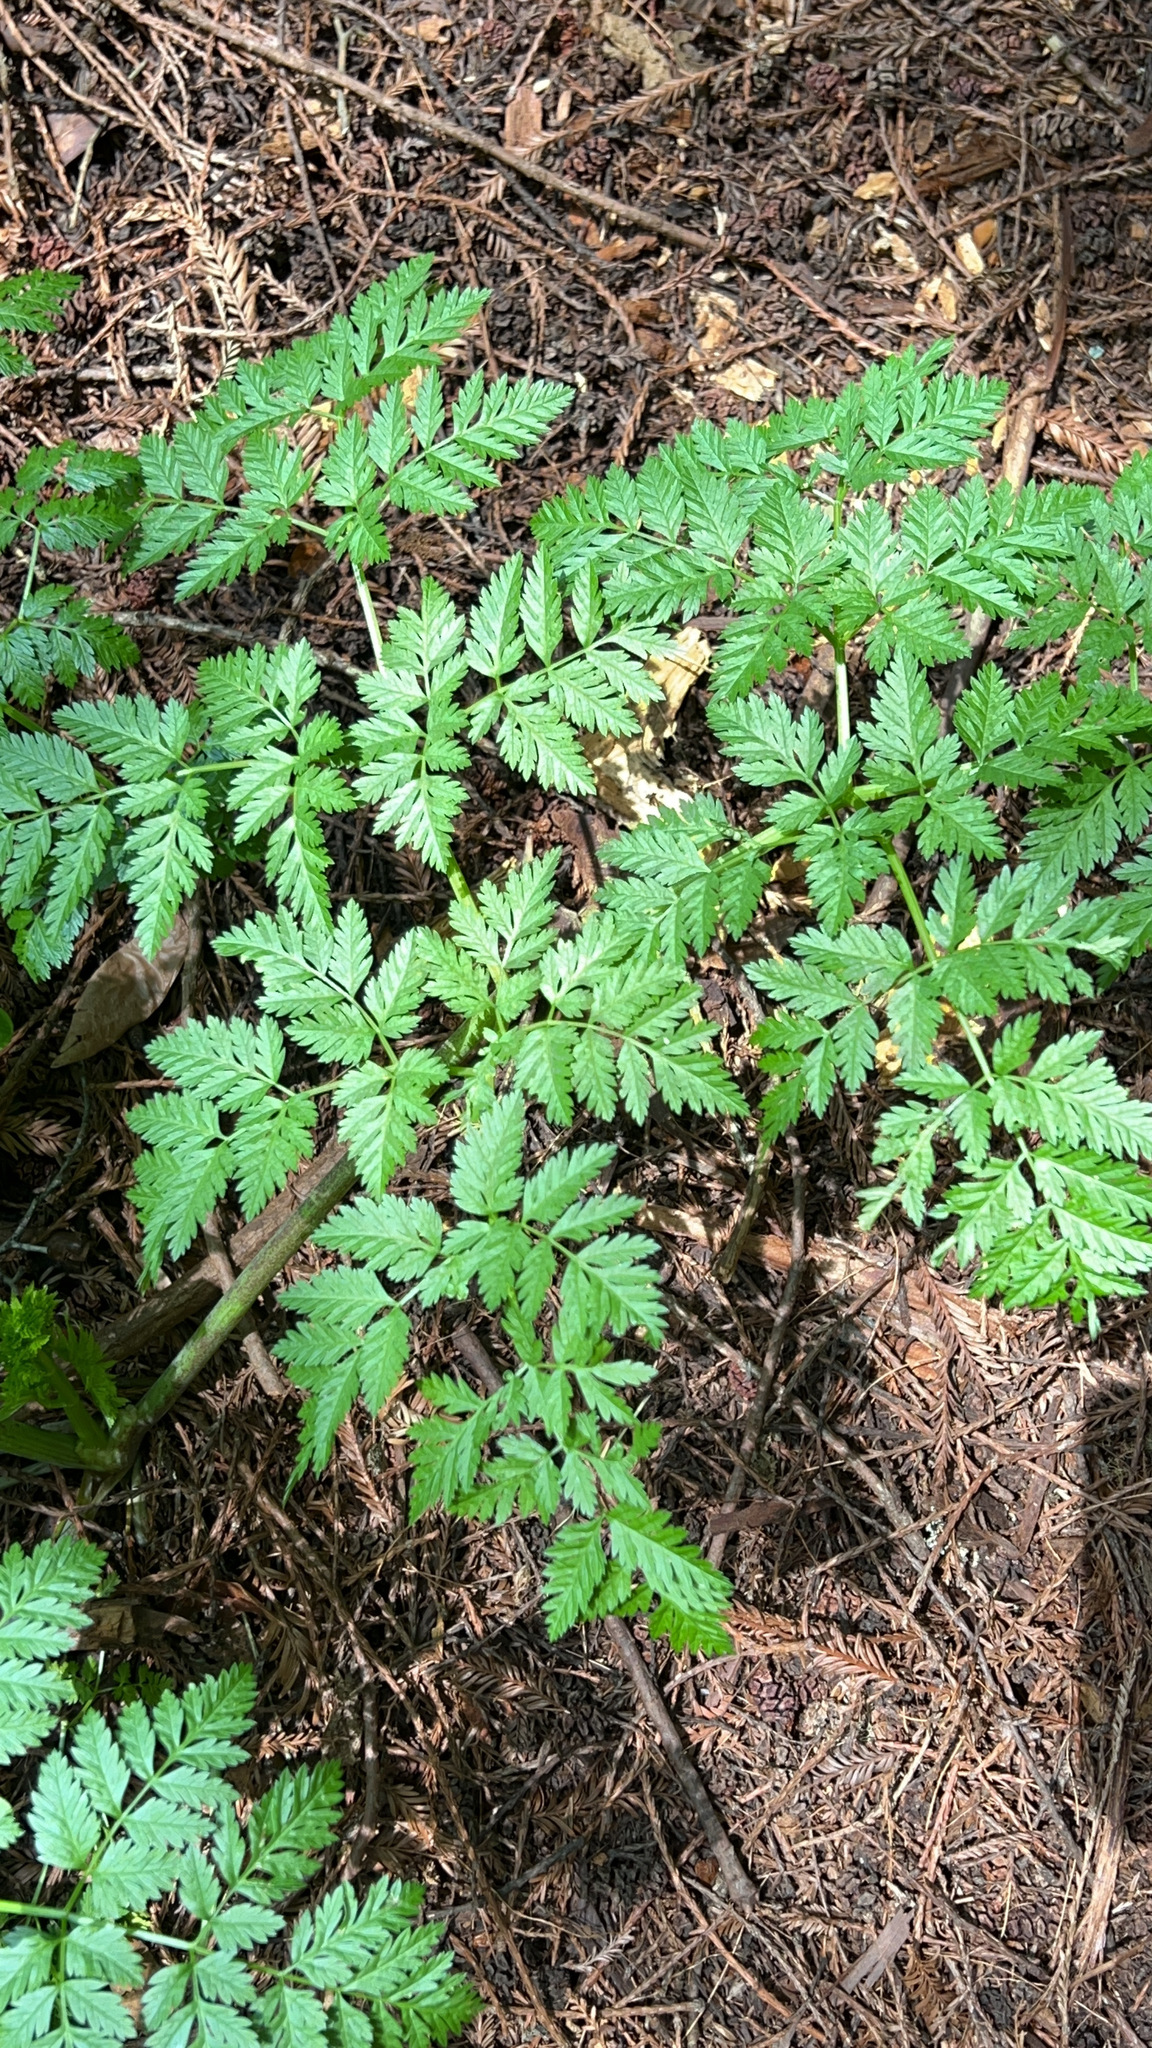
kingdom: Plantae
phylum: Tracheophyta
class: Magnoliopsida
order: Apiales
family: Apiaceae
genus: Conium
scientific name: Conium maculatum
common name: Hemlock
